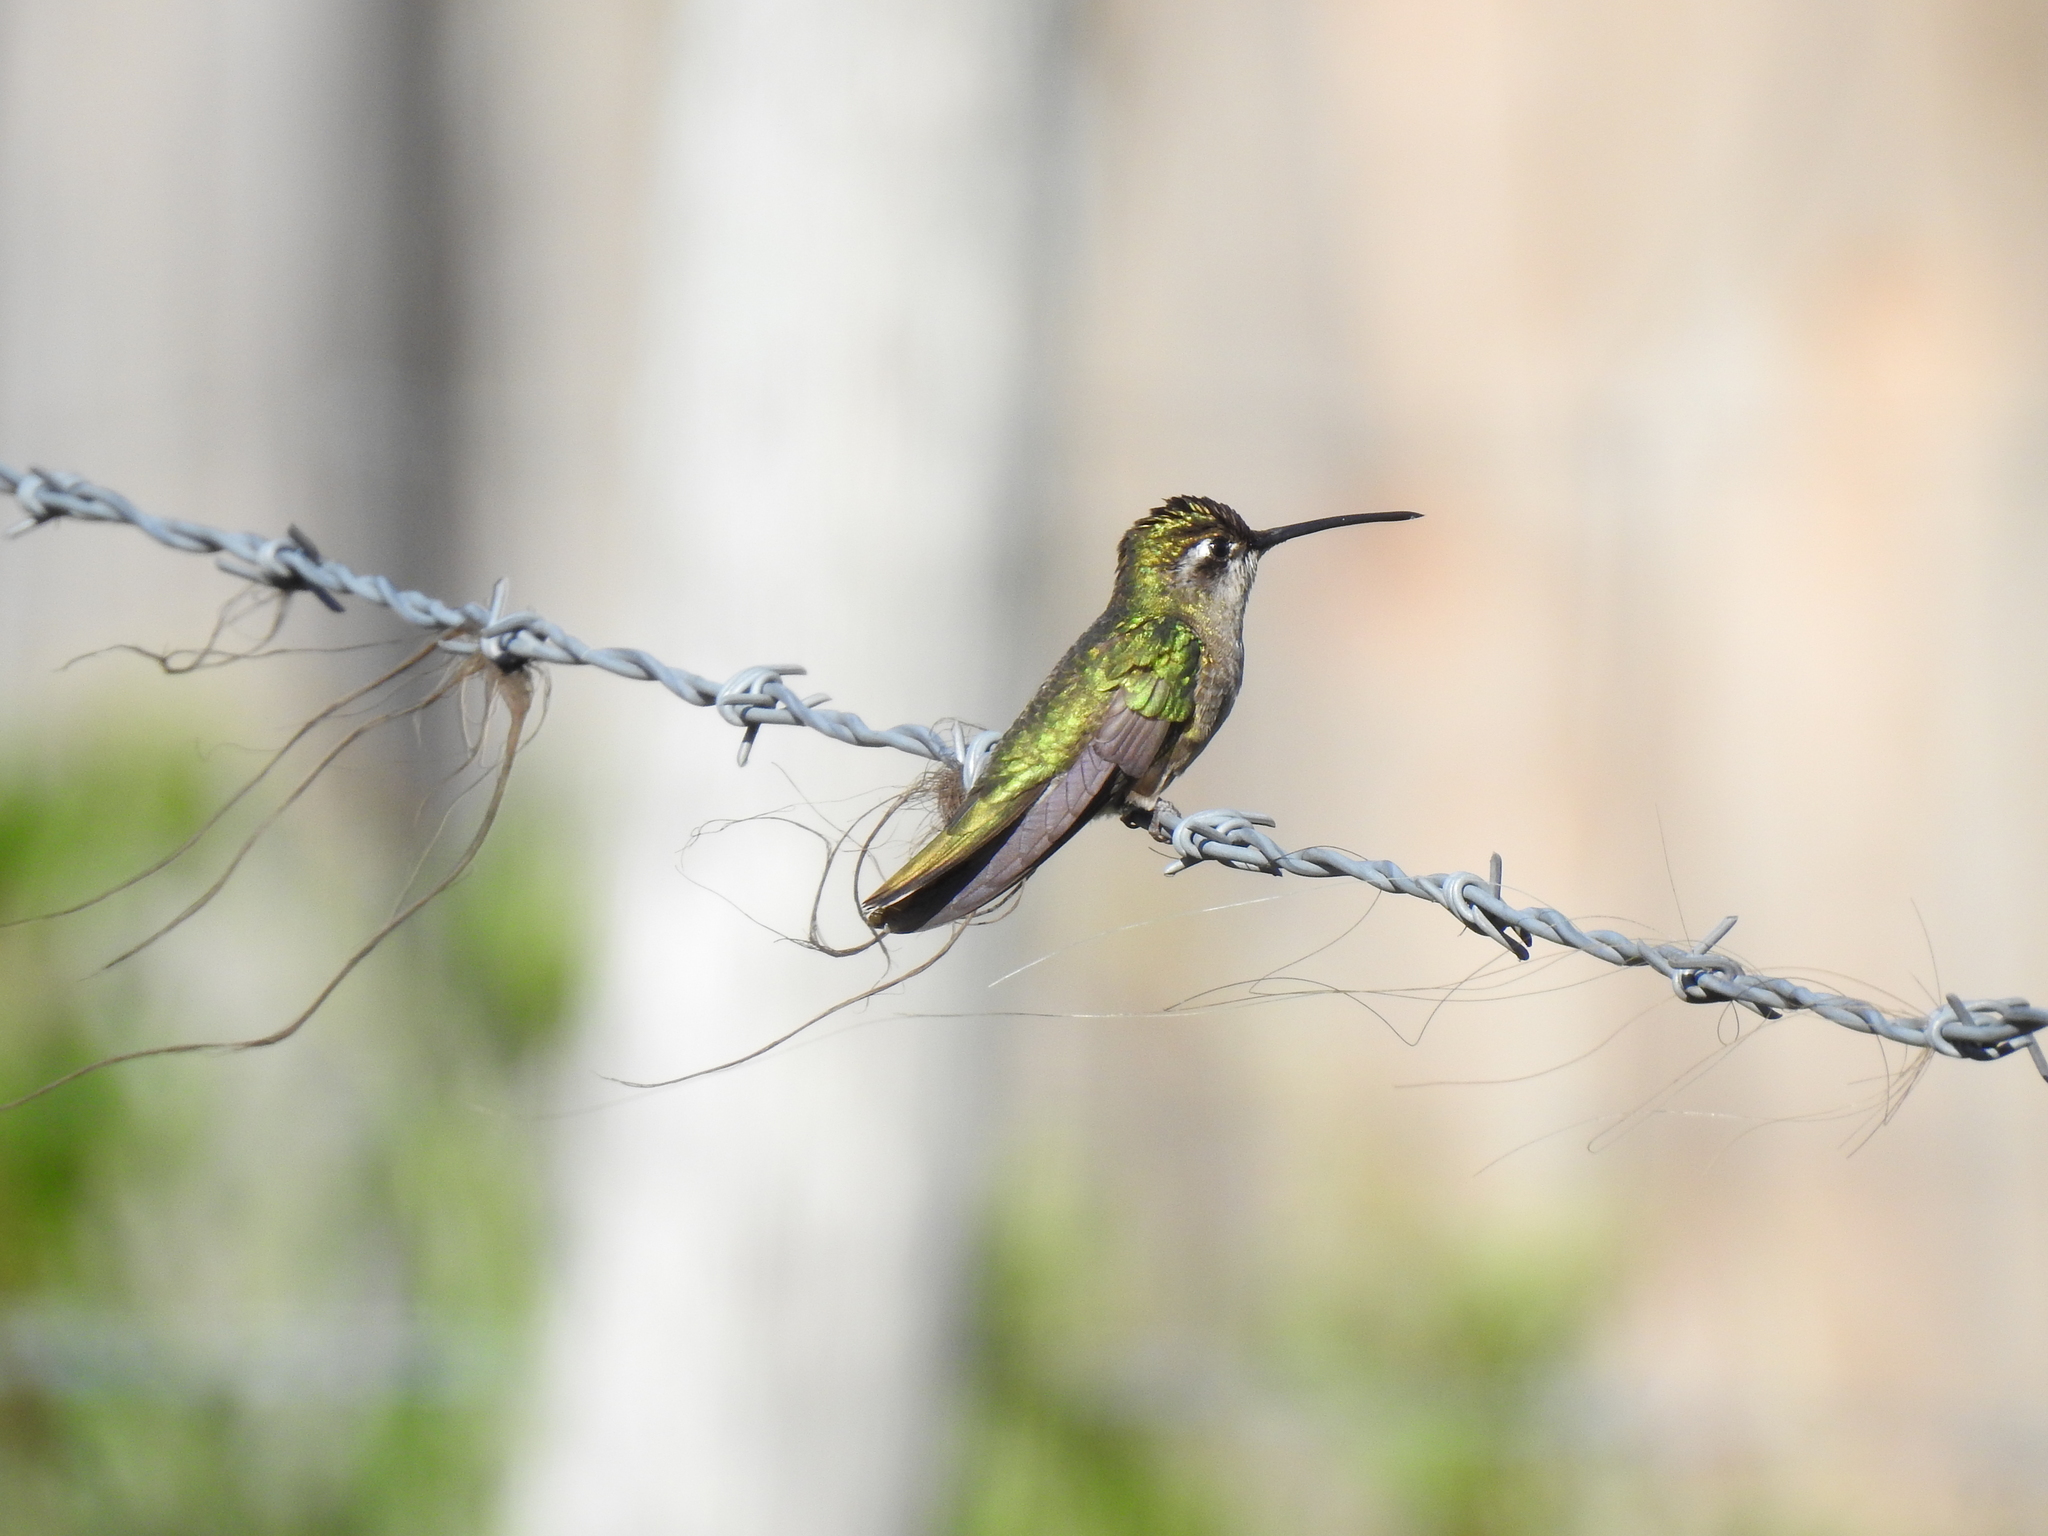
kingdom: Animalia
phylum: Chordata
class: Aves
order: Apodiformes
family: Trochilidae
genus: Eugenes
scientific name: Eugenes fulgens
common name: Magnificent hummingbird
